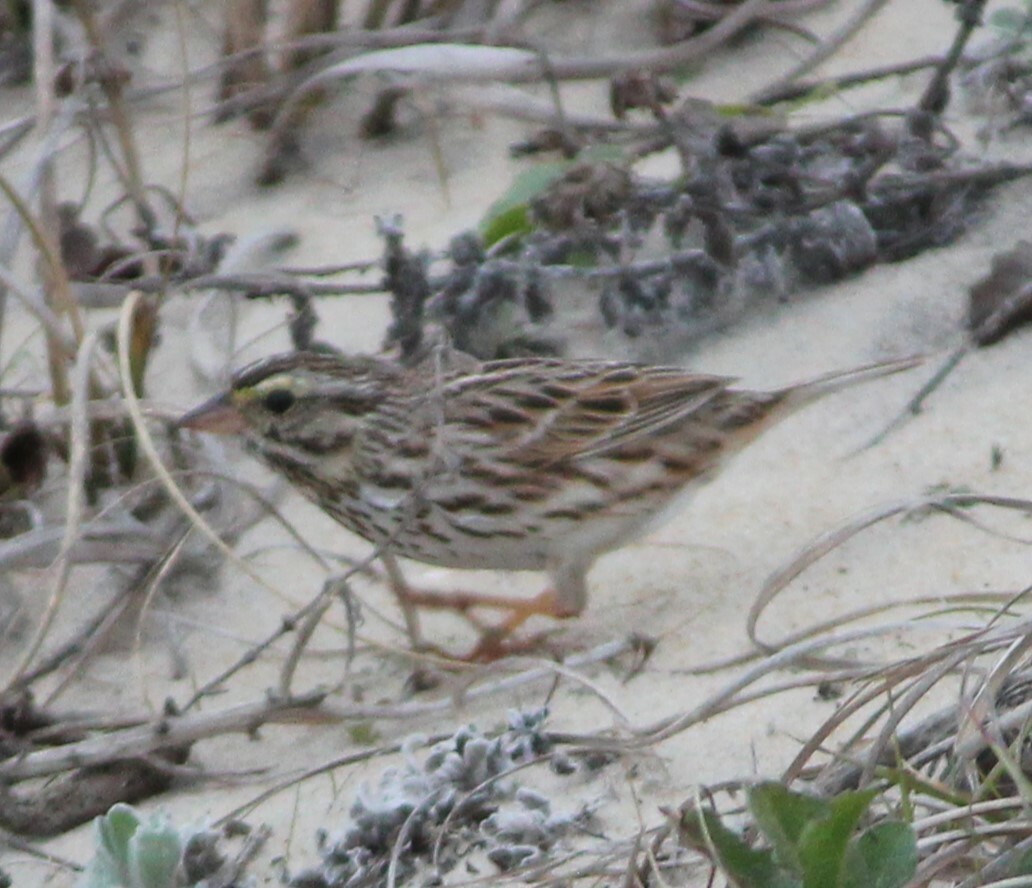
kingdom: Animalia
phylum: Chordata
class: Aves
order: Passeriformes
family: Passerellidae
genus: Passerculus
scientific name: Passerculus sandwichensis
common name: Savannah sparrow
